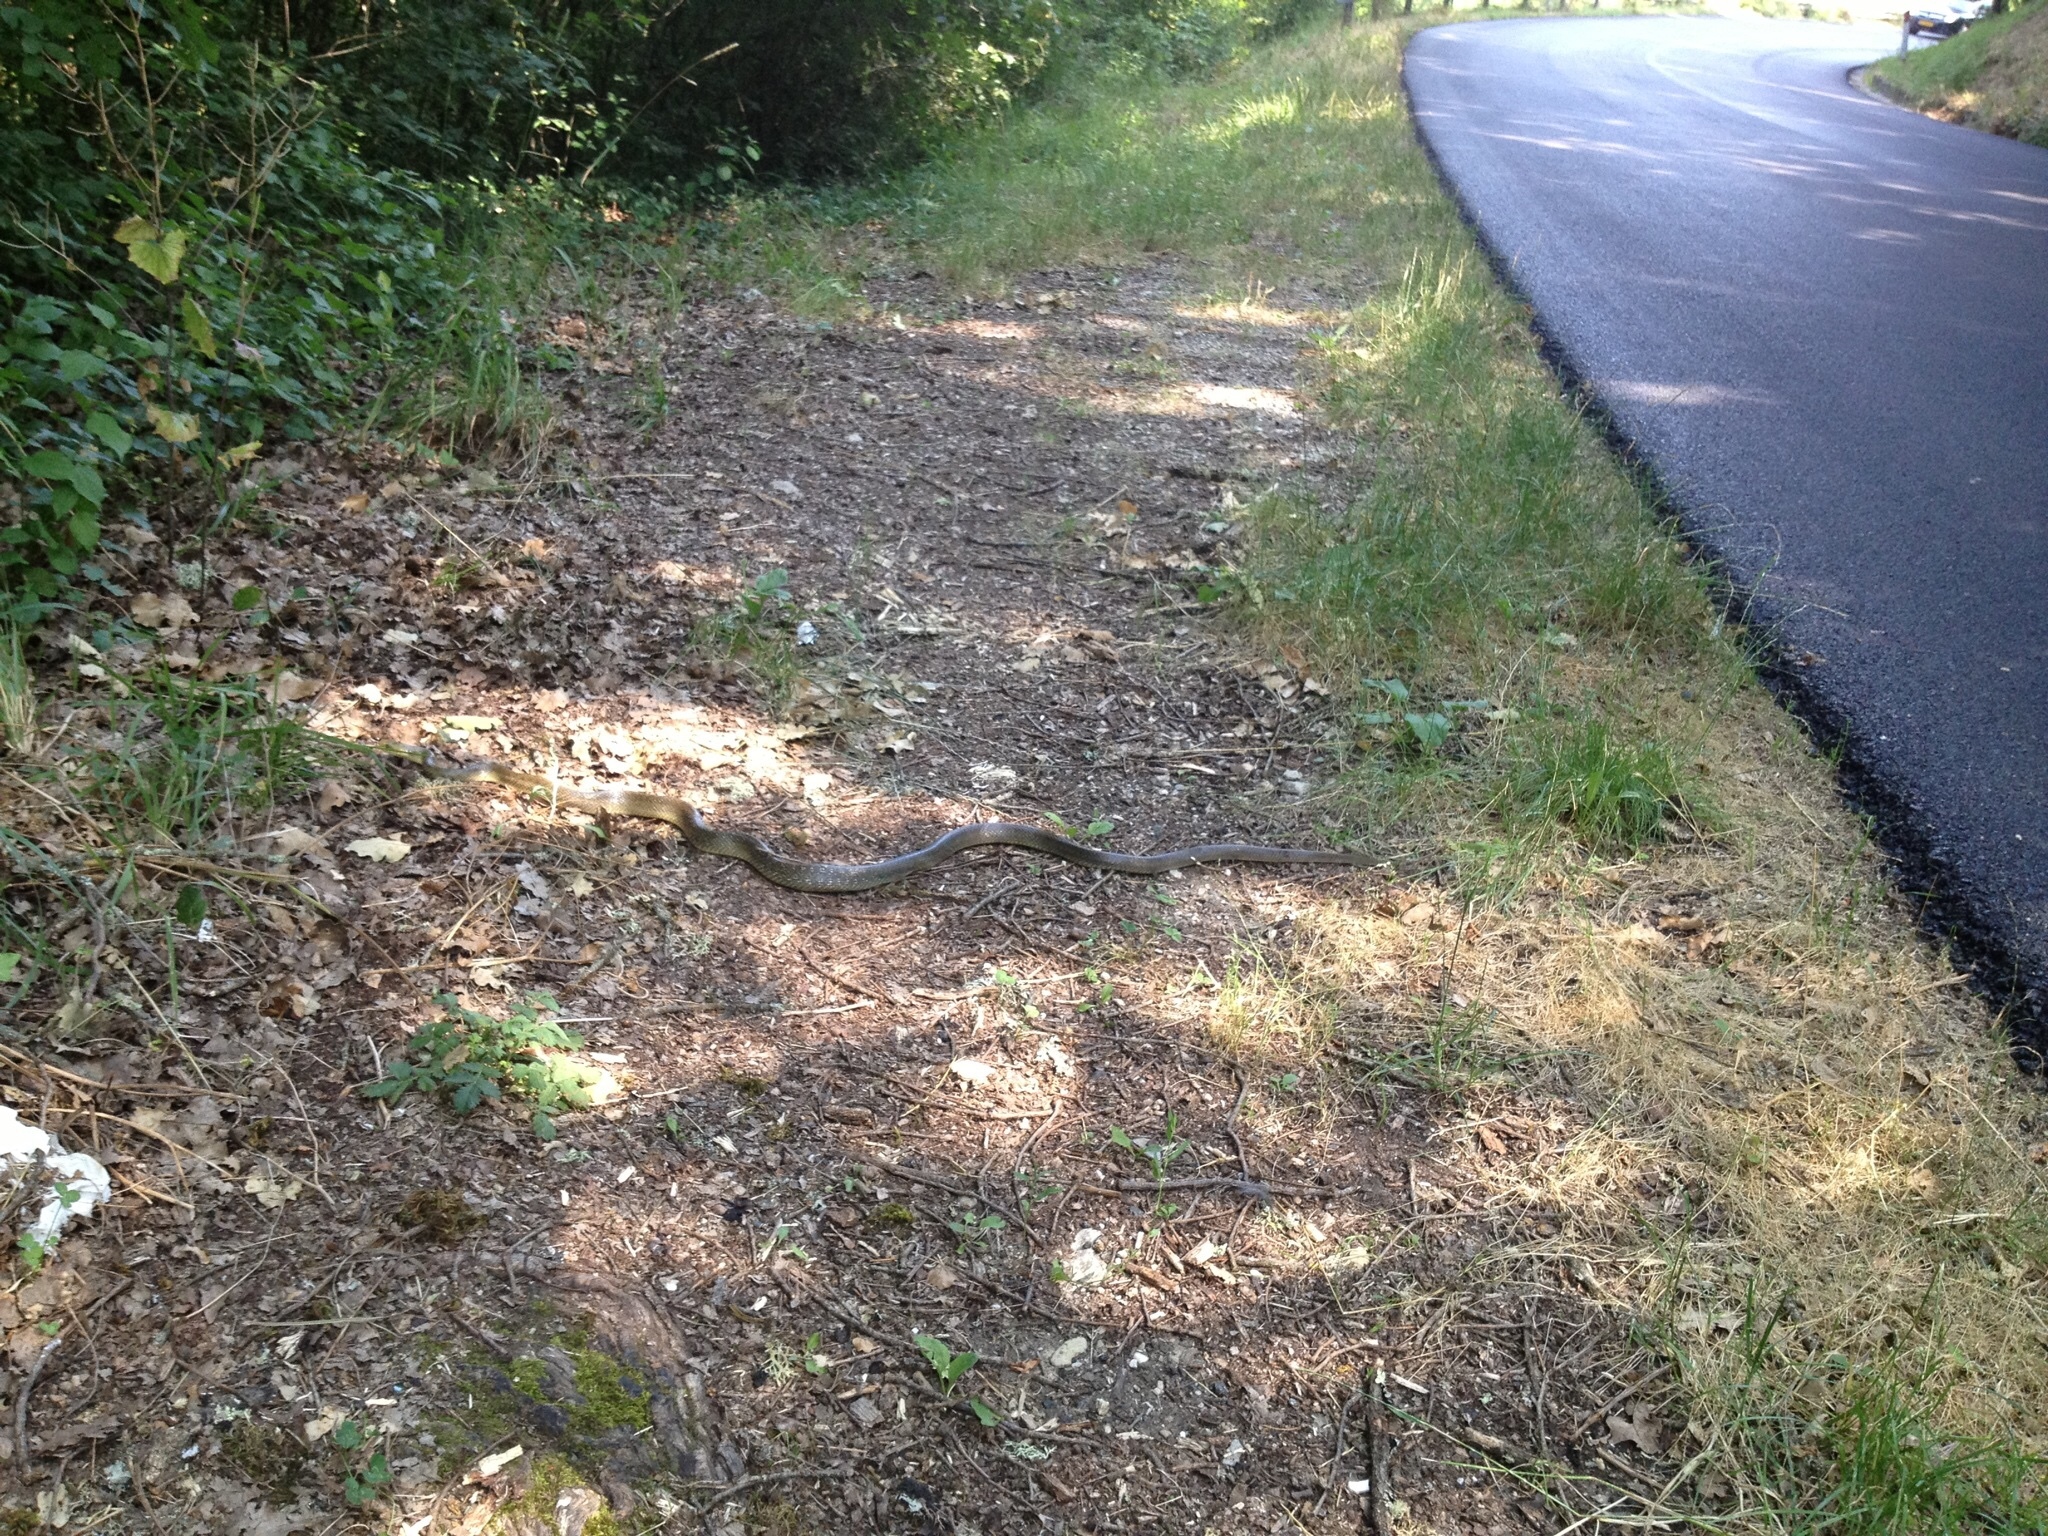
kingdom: Animalia
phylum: Chordata
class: Squamata
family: Colubridae
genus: Zamenis
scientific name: Zamenis longissimus
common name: Aesculapean snake
